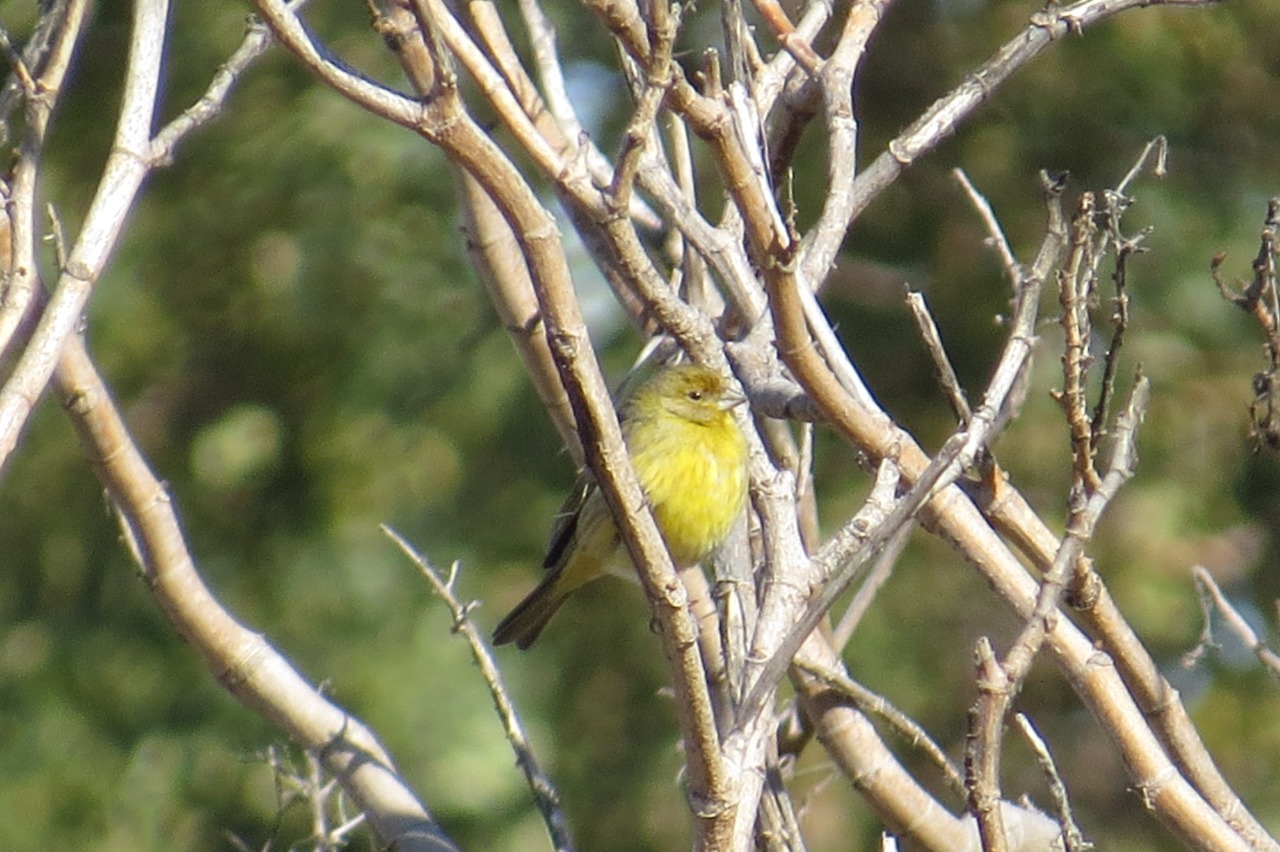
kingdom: Animalia
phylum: Chordata
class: Aves
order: Passeriformes
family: Thraupidae
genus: Sicalis
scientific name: Sicalis flaveola
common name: Saffron finch
